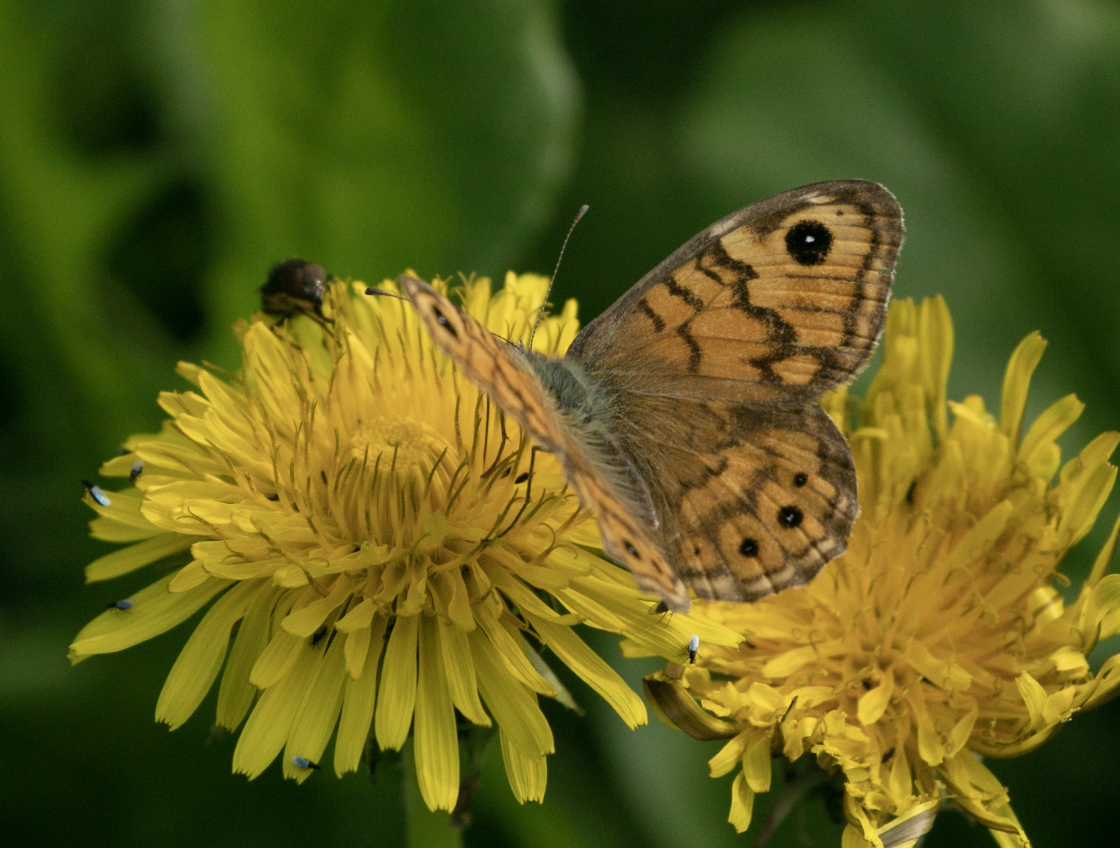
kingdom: Animalia
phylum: Arthropoda
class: Insecta
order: Lepidoptera
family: Nymphalidae
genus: Pararge
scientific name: Pararge Lasiommata megera
